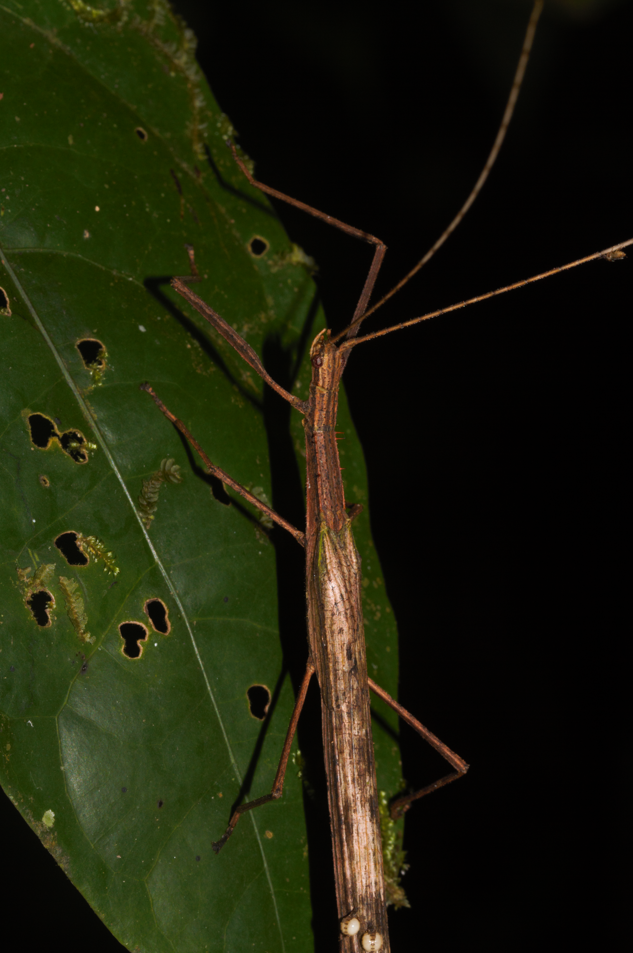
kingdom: Animalia
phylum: Arthropoda
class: Insecta
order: Phasmida
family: Pseudophasmatidae
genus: Metriophasma
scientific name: Metriophasma baculus
